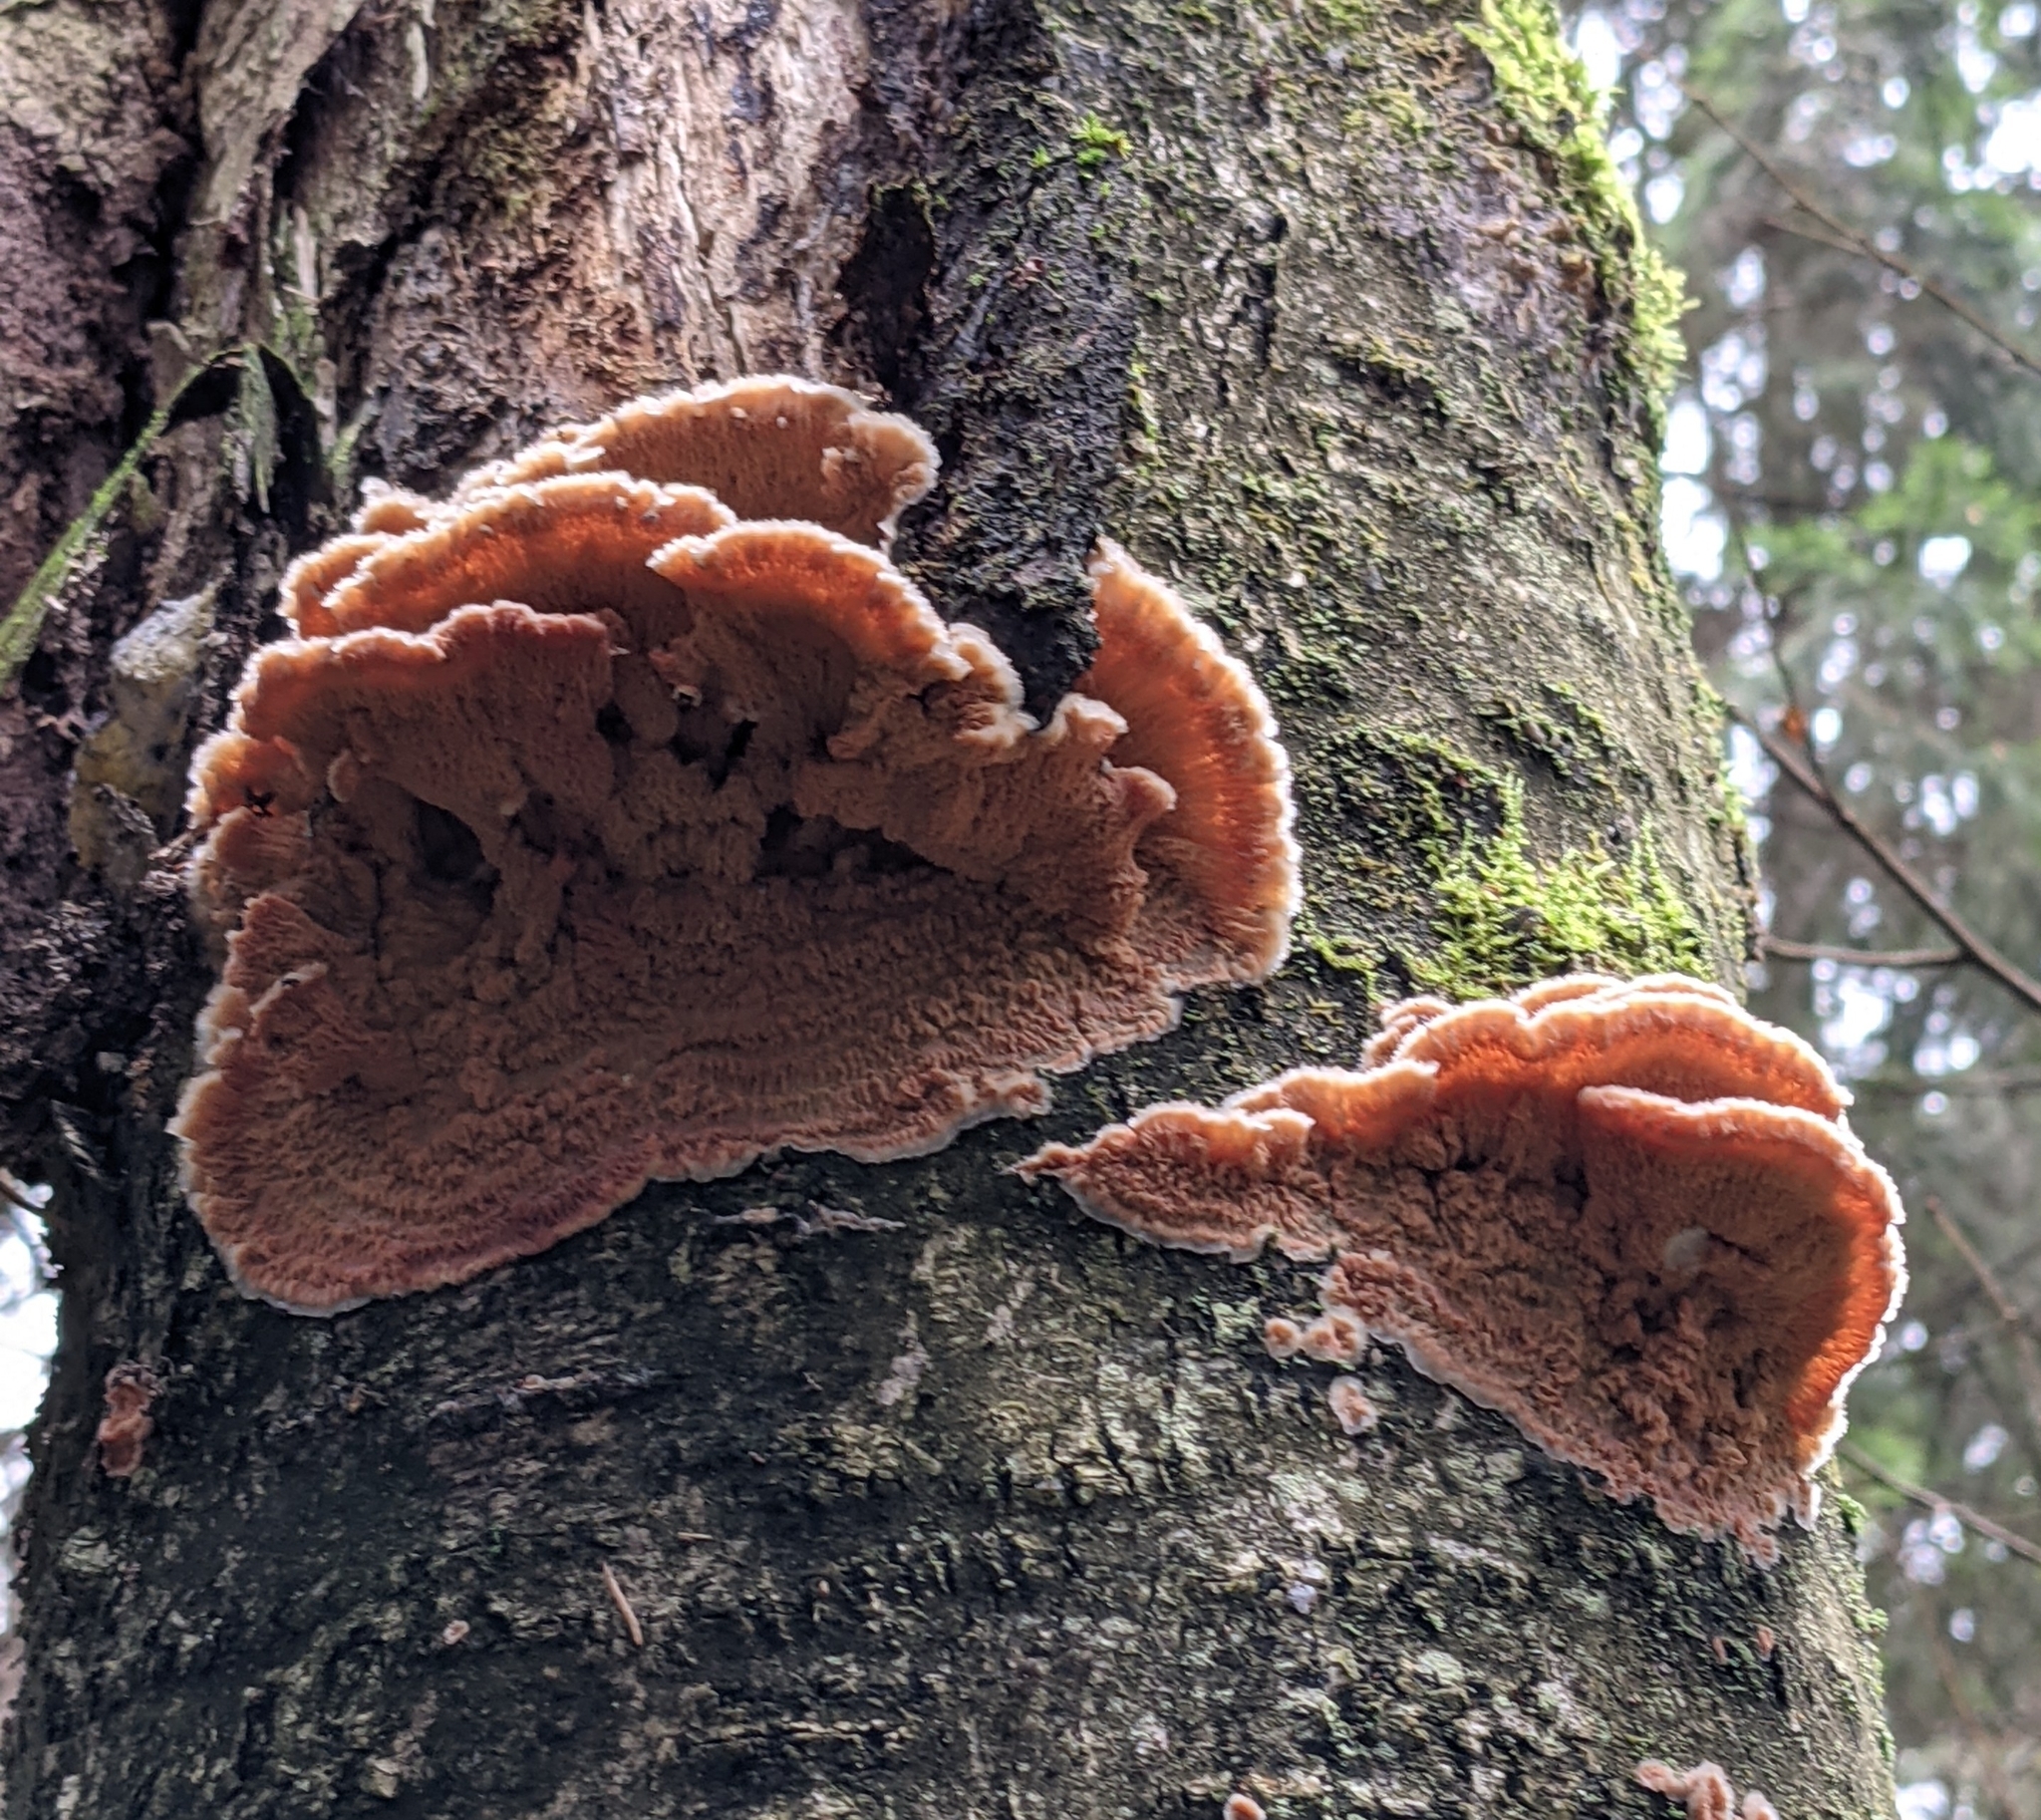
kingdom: Fungi
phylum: Basidiomycota
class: Agaricomycetes
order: Polyporales
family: Meruliaceae
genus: Phlebia
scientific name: Phlebia tremellosa
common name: Jelly rot
